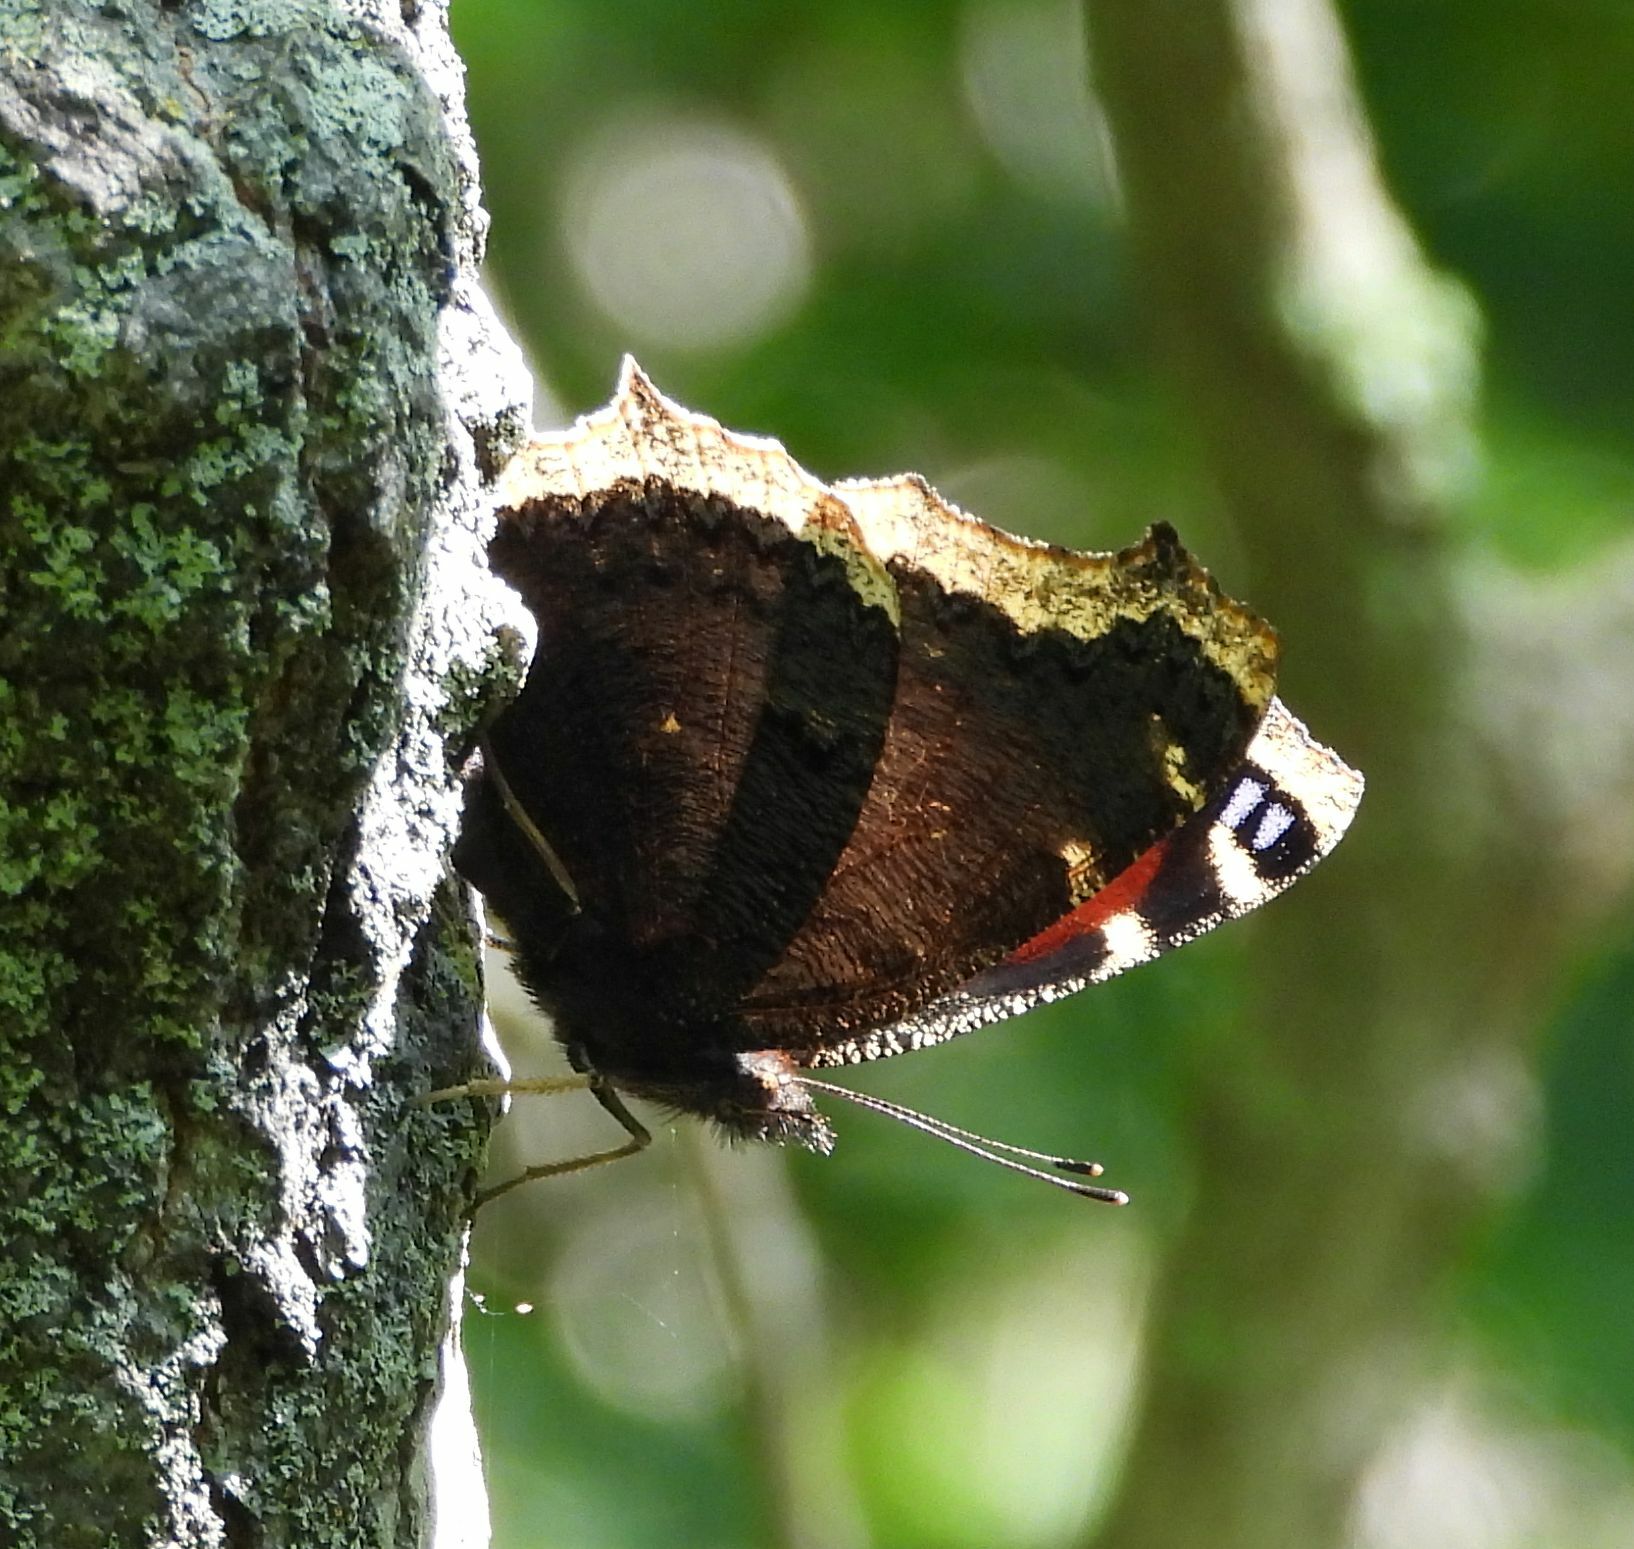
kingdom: Animalia
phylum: Arthropoda
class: Insecta
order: Lepidoptera
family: Nymphalidae
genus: Nymphalis
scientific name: Nymphalis antiopa
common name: Camberwell beauty
